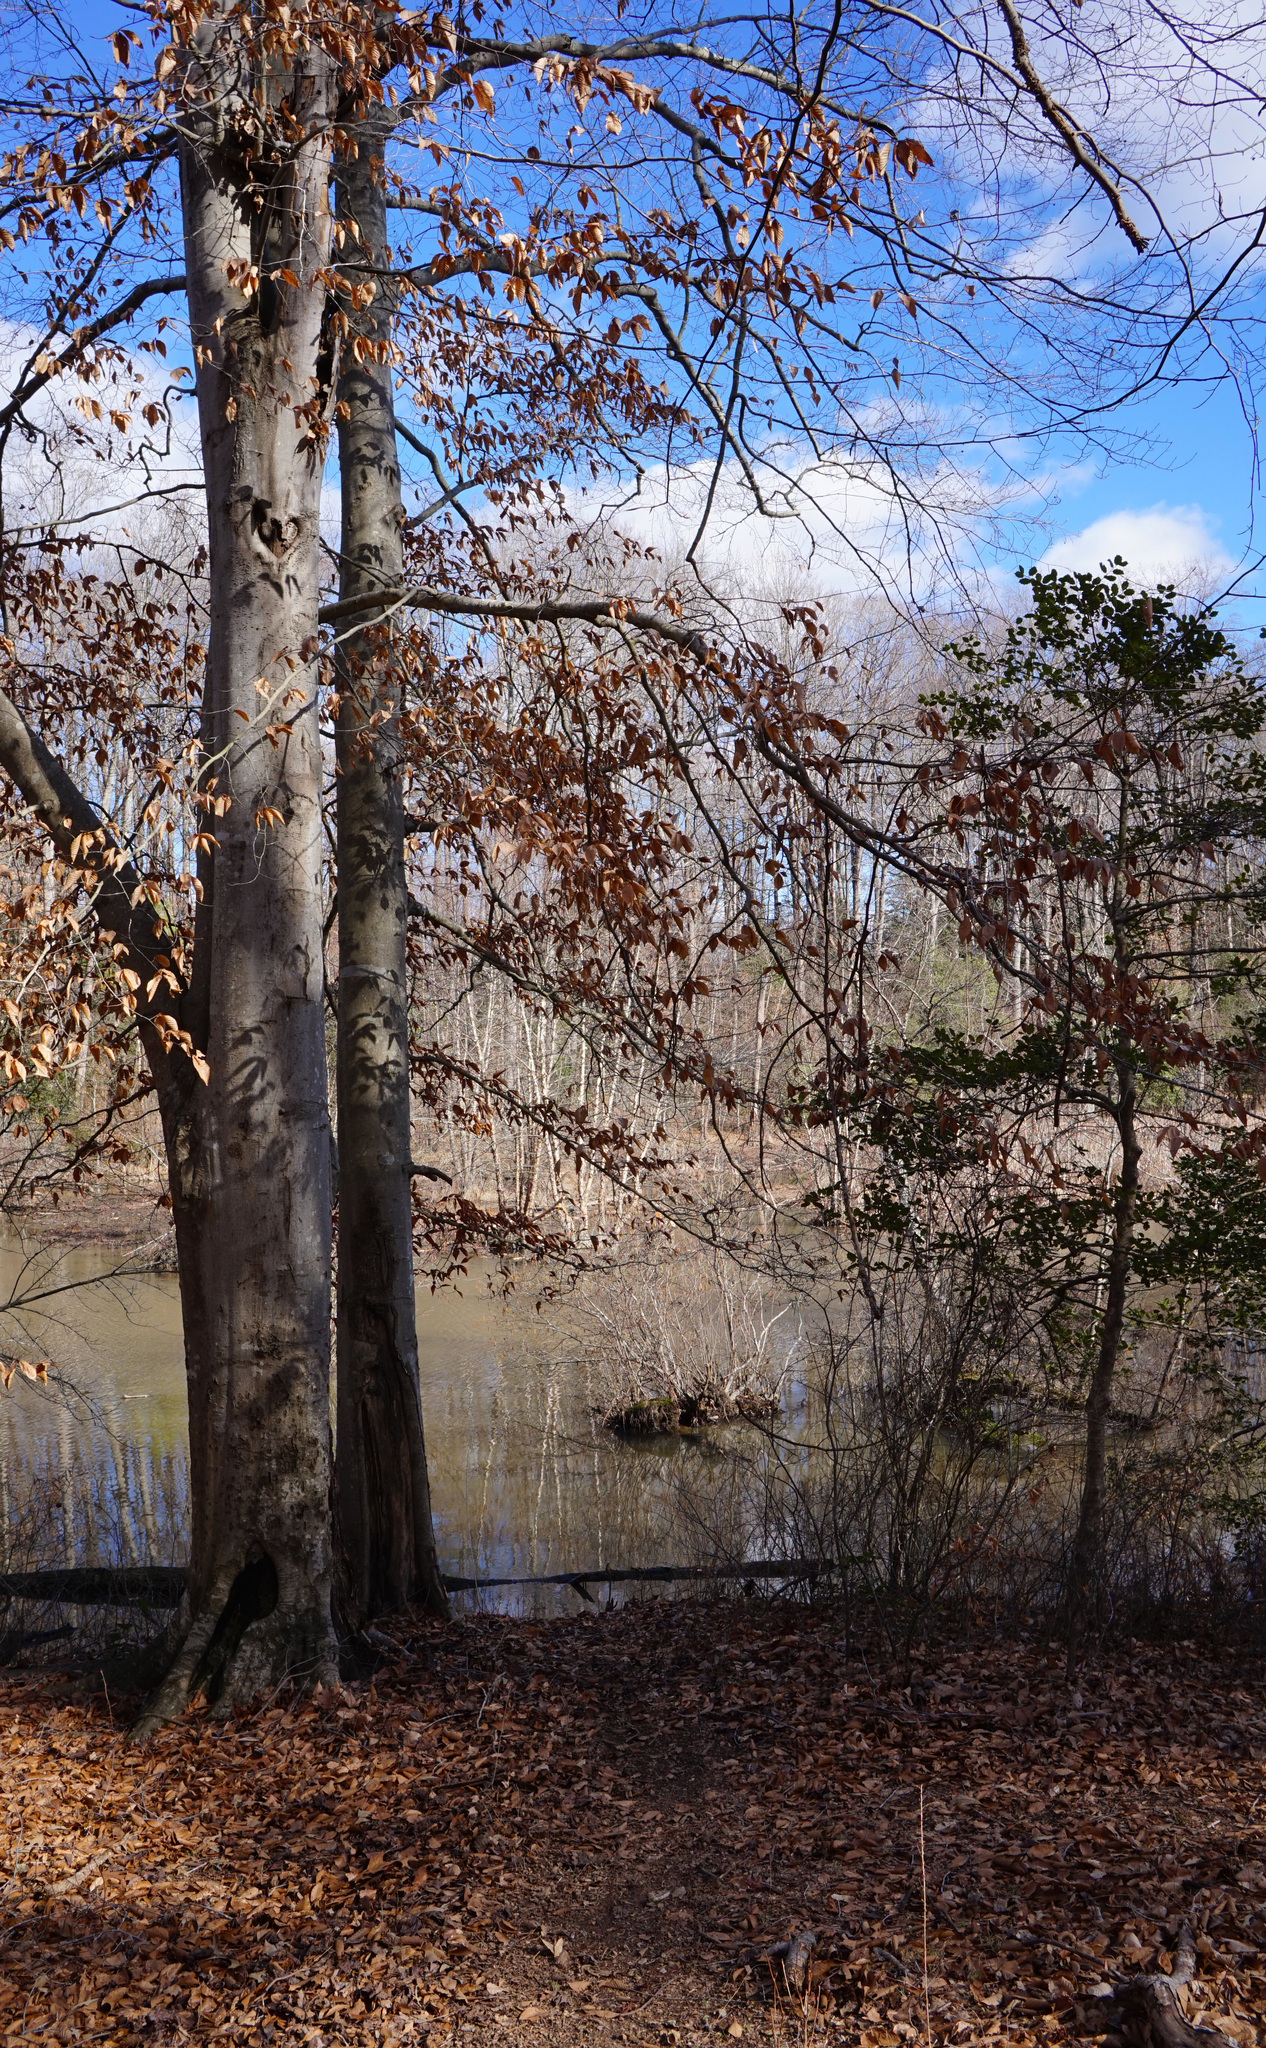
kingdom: Plantae
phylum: Tracheophyta
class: Magnoliopsida
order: Fagales
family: Fagaceae
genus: Fagus
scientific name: Fagus grandifolia
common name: American beech
